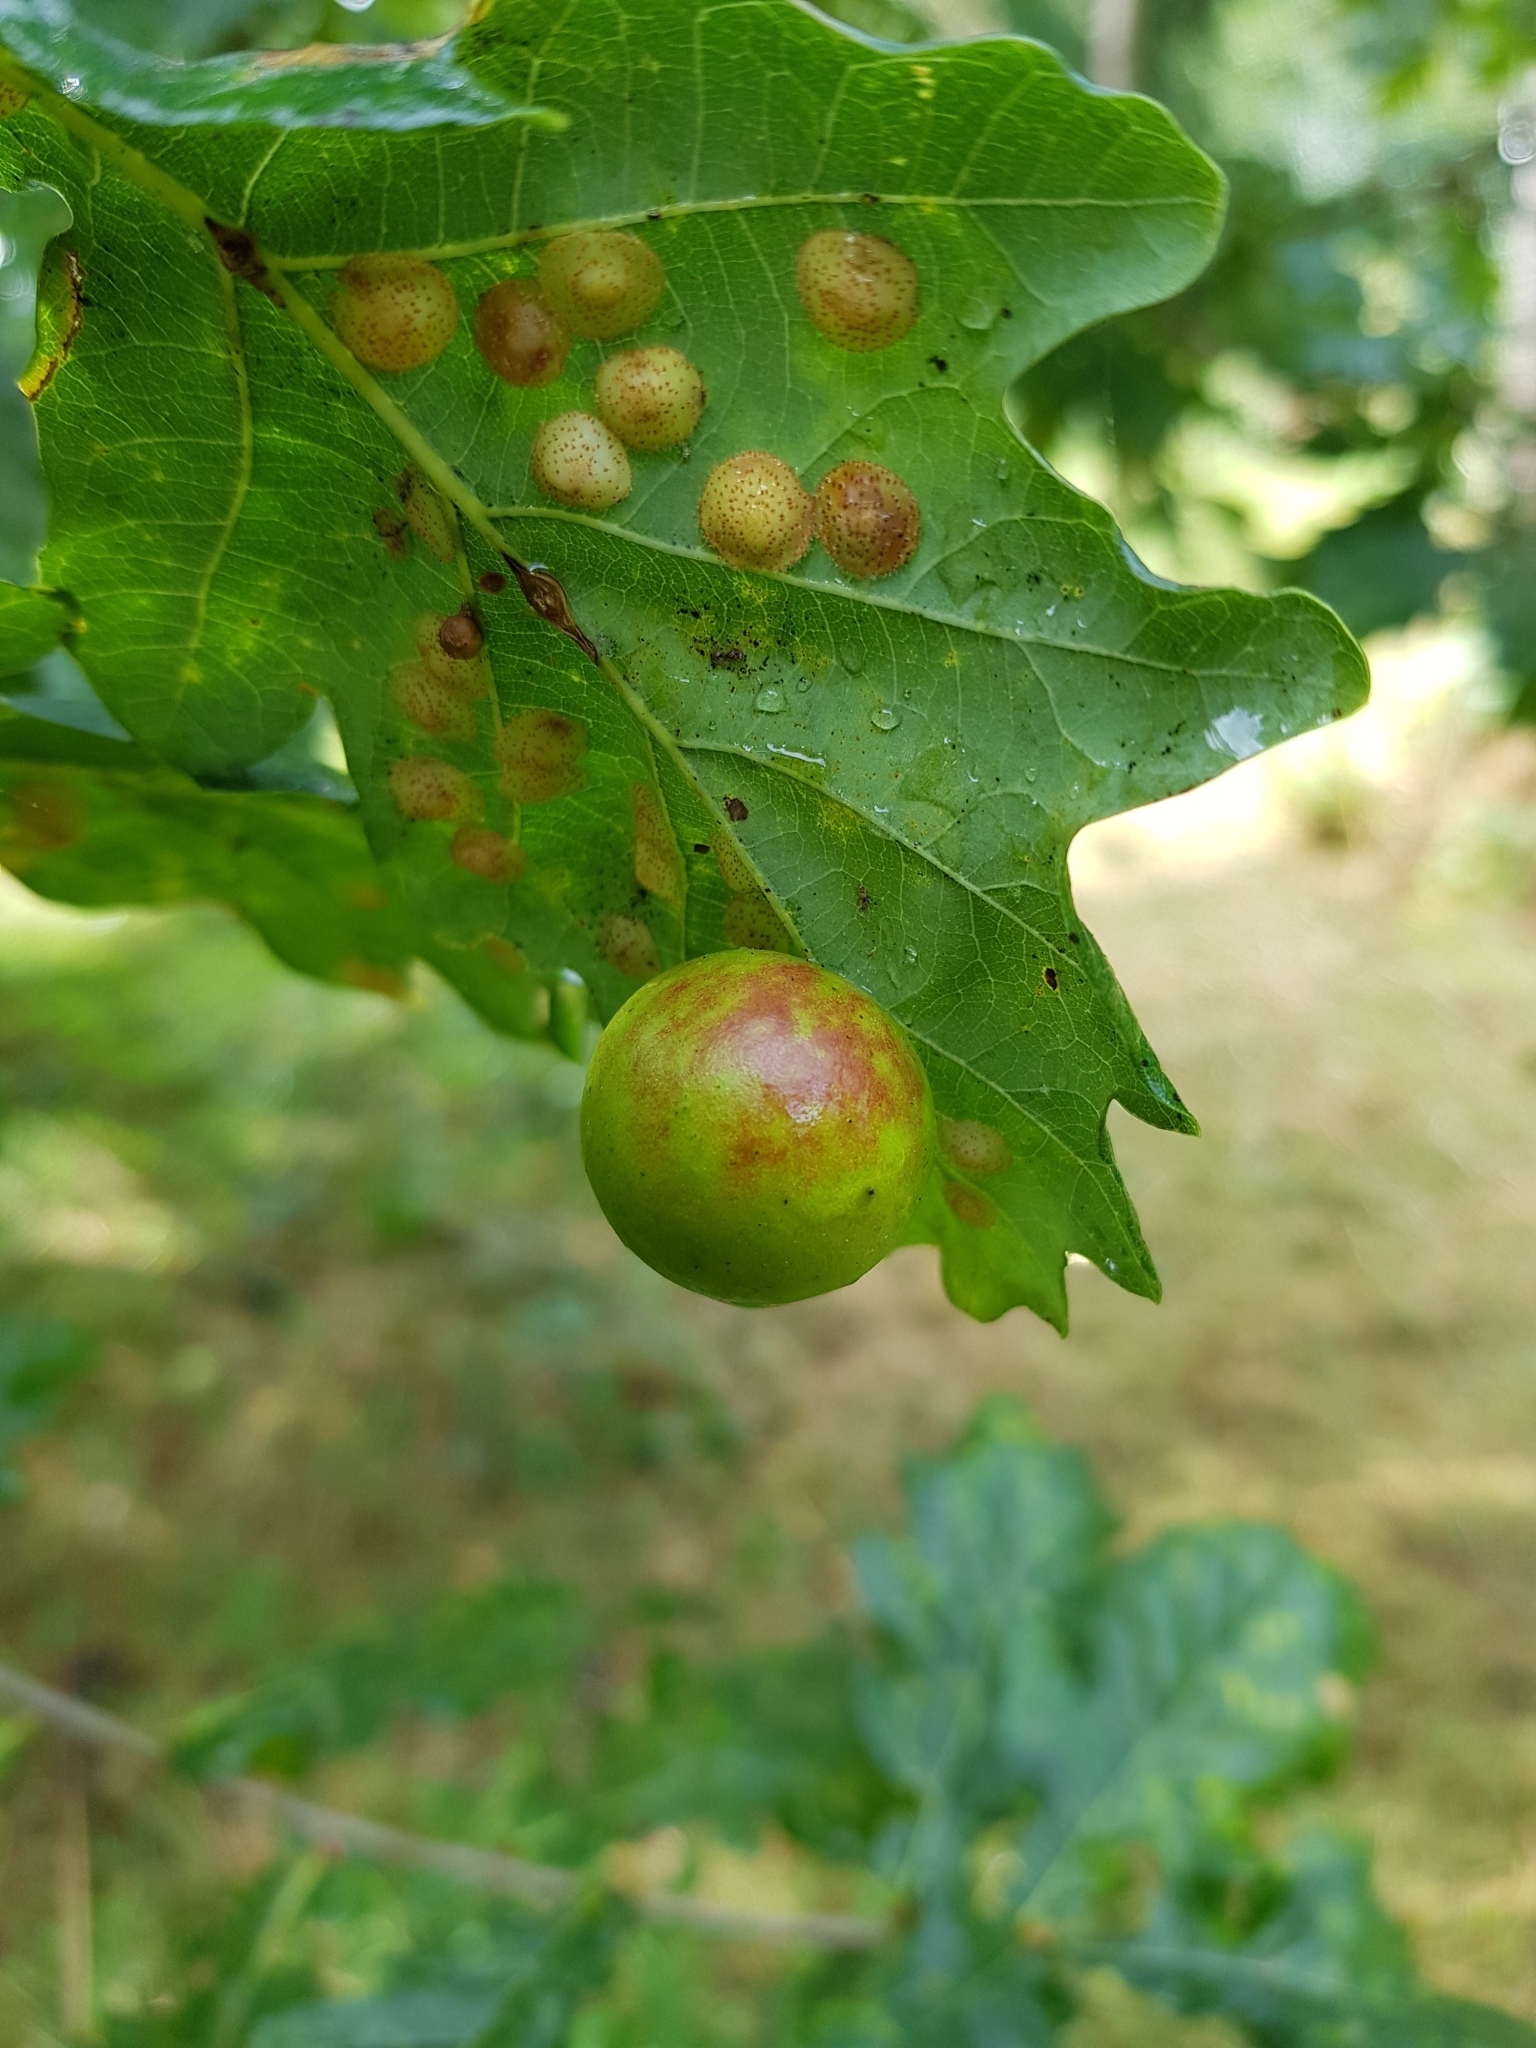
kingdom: Animalia
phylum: Arthropoda
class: Insecta
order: Hymenoptera
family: Cynipidae
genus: Cynips
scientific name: Cynips quercusfolii
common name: Cherry gall
